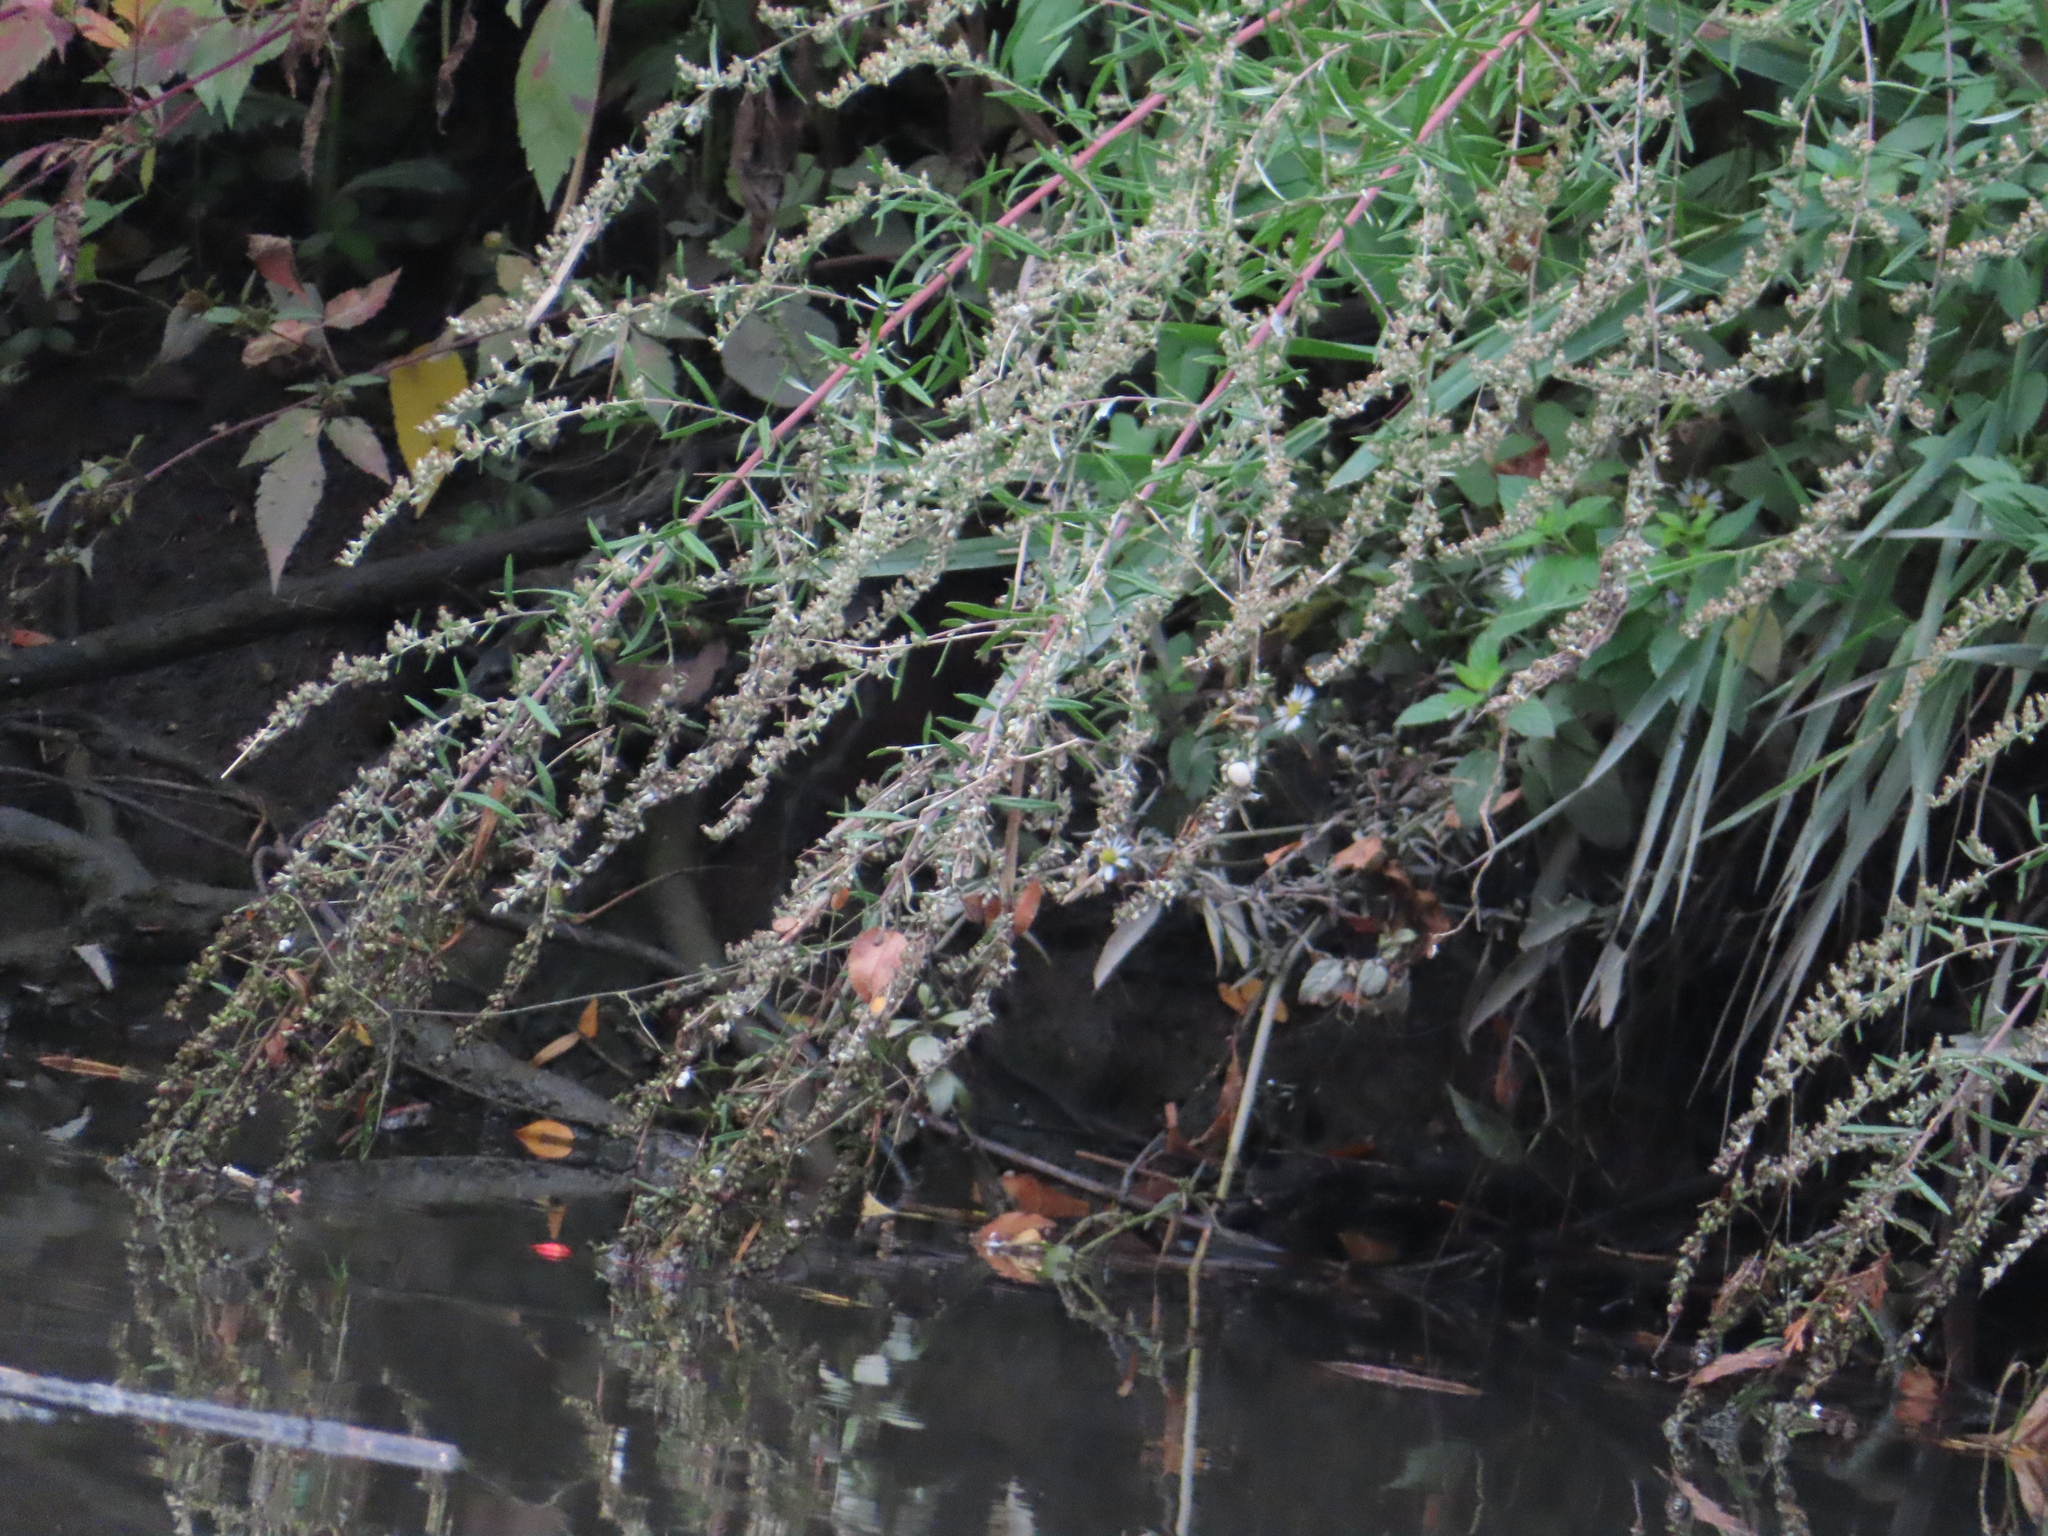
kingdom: Plantae
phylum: Tracheophyta
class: Magnoliopsida
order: Asterales
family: Asteraceae
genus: Artemisia
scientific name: Artemisia vulgaris
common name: Mugwort
